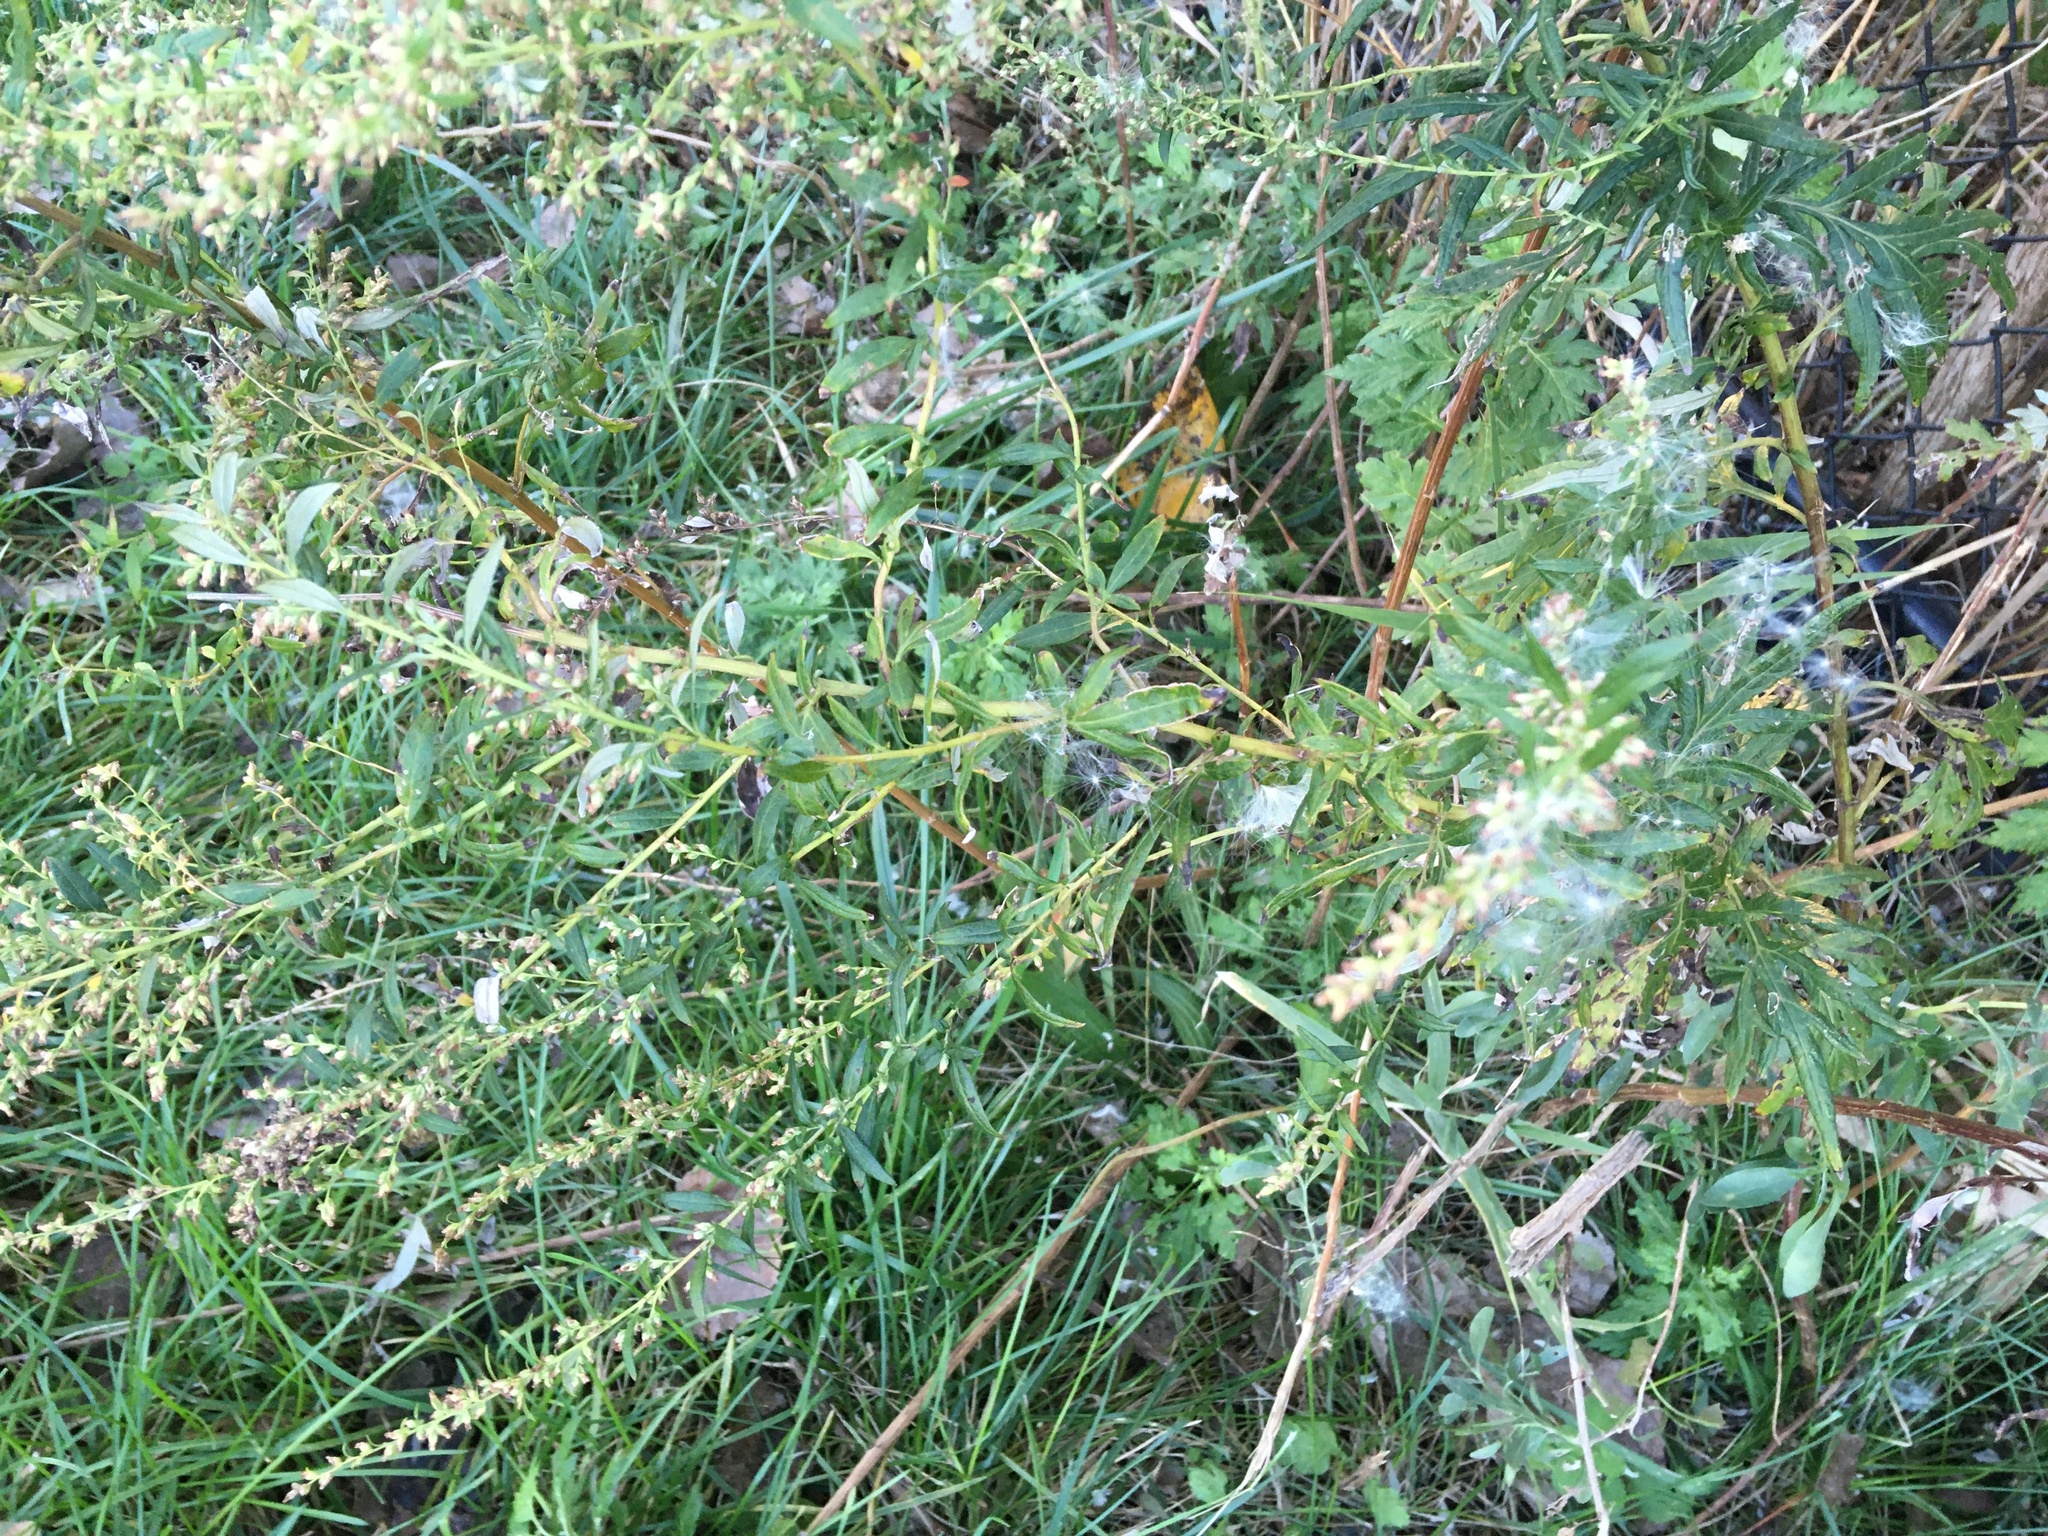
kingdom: Plantae
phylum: Tracheophyta
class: Magnoliopsida
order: Asterales
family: Asteraceae
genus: Artemisia
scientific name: Artemisia vulgaris
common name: Mugwort
